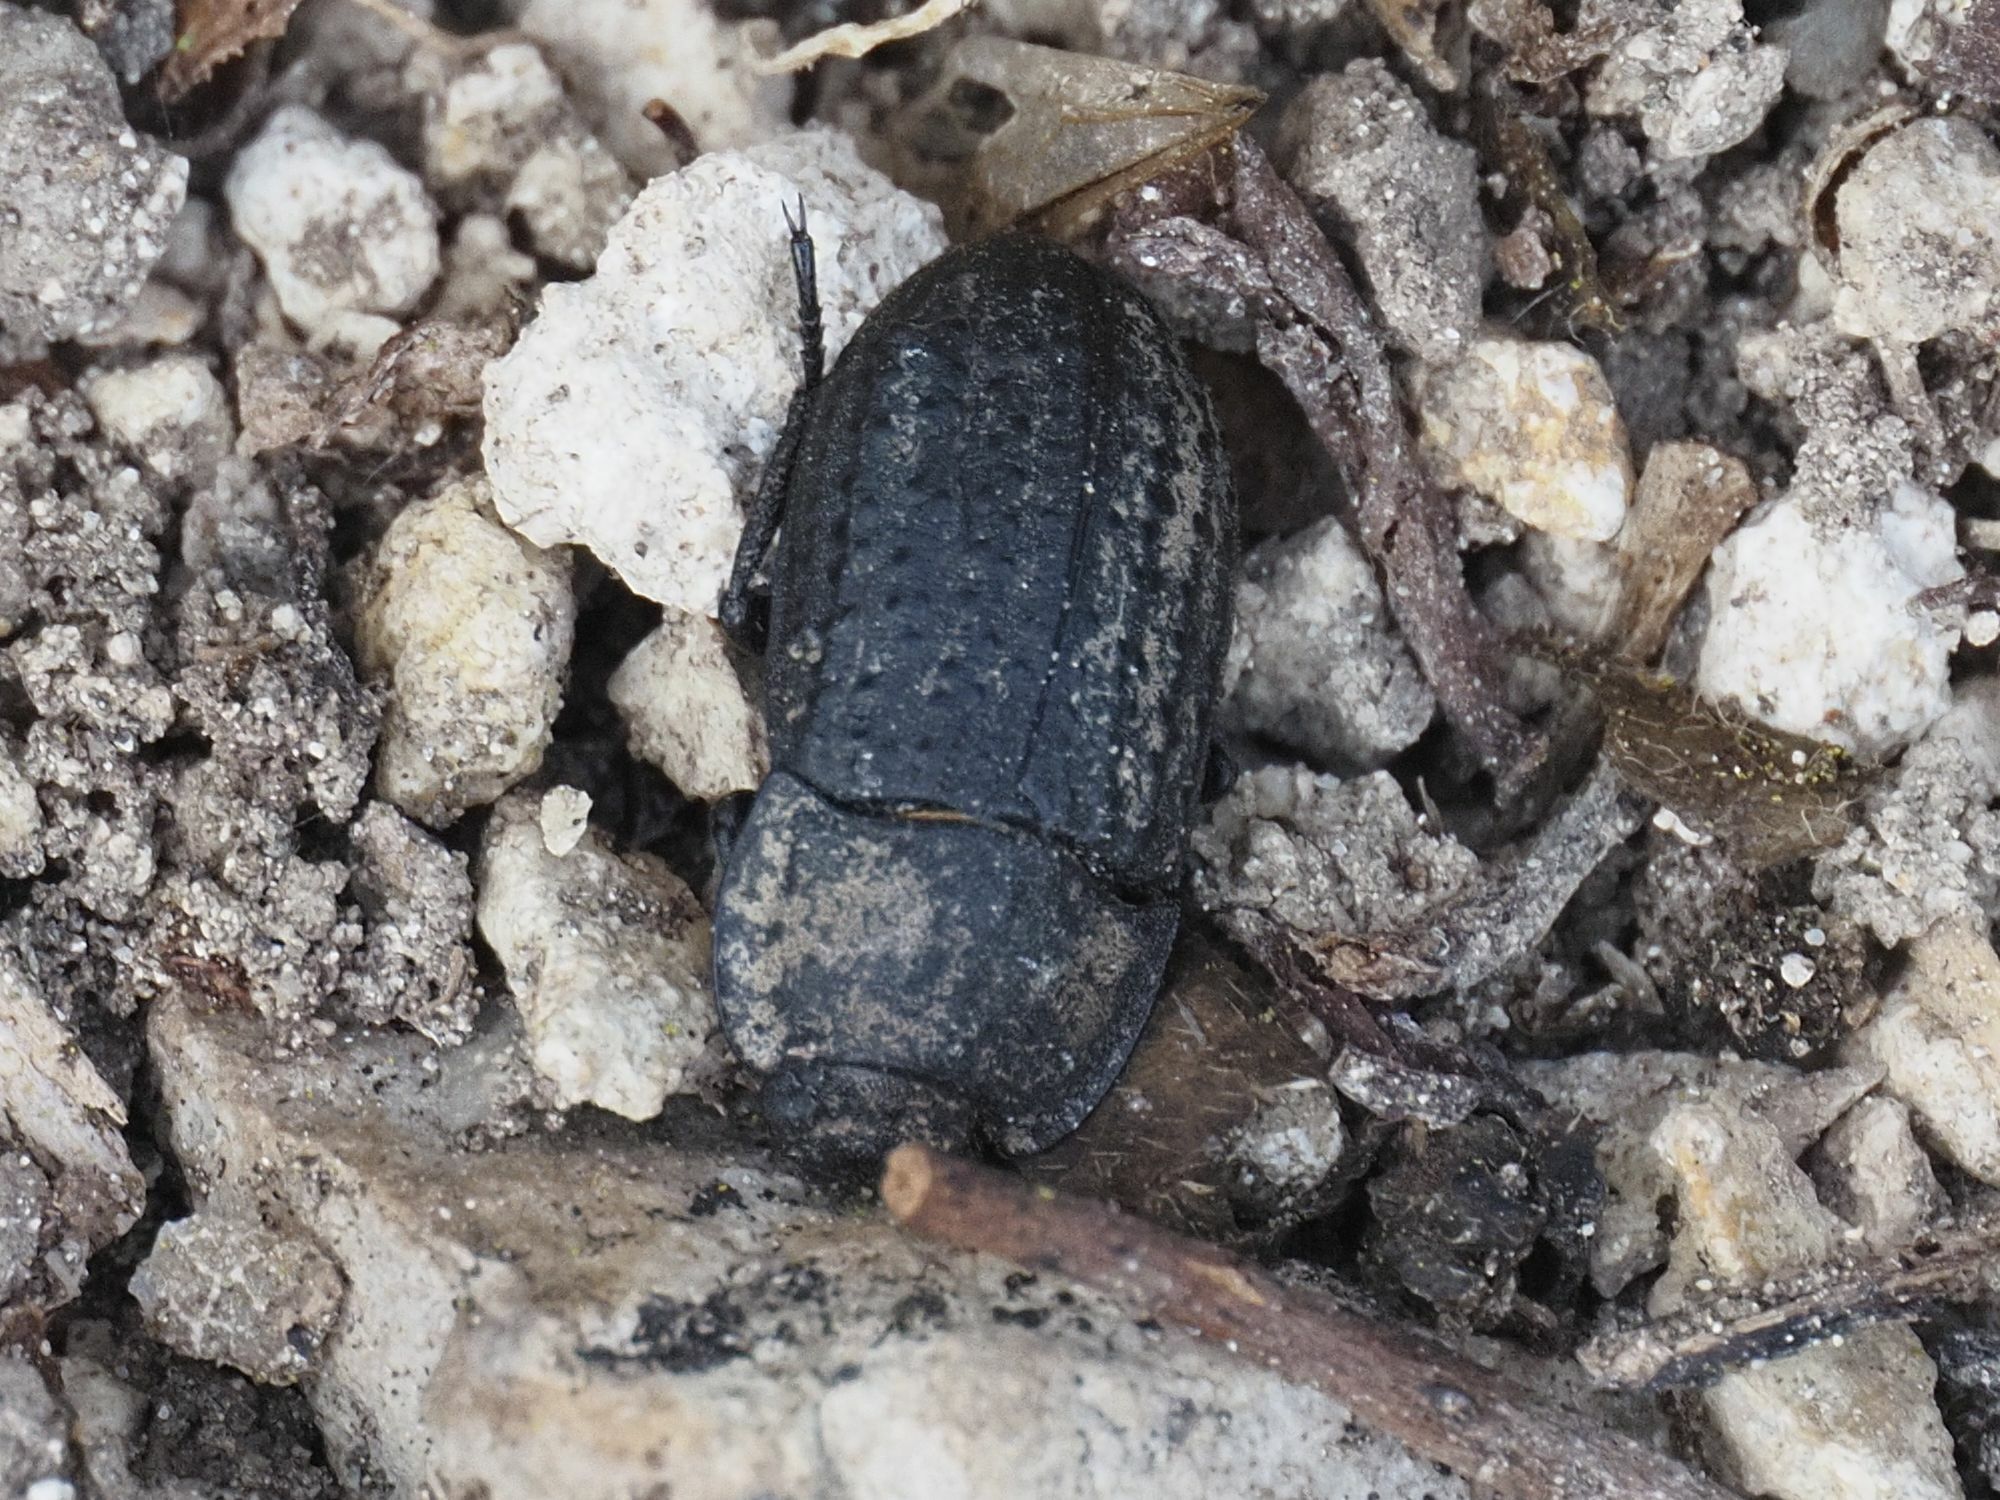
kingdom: Animalia
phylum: Arthropoda
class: Insecta
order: Coleoptera
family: Tenebrionidae
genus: Opatrum
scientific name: Opatrum sabulosum
